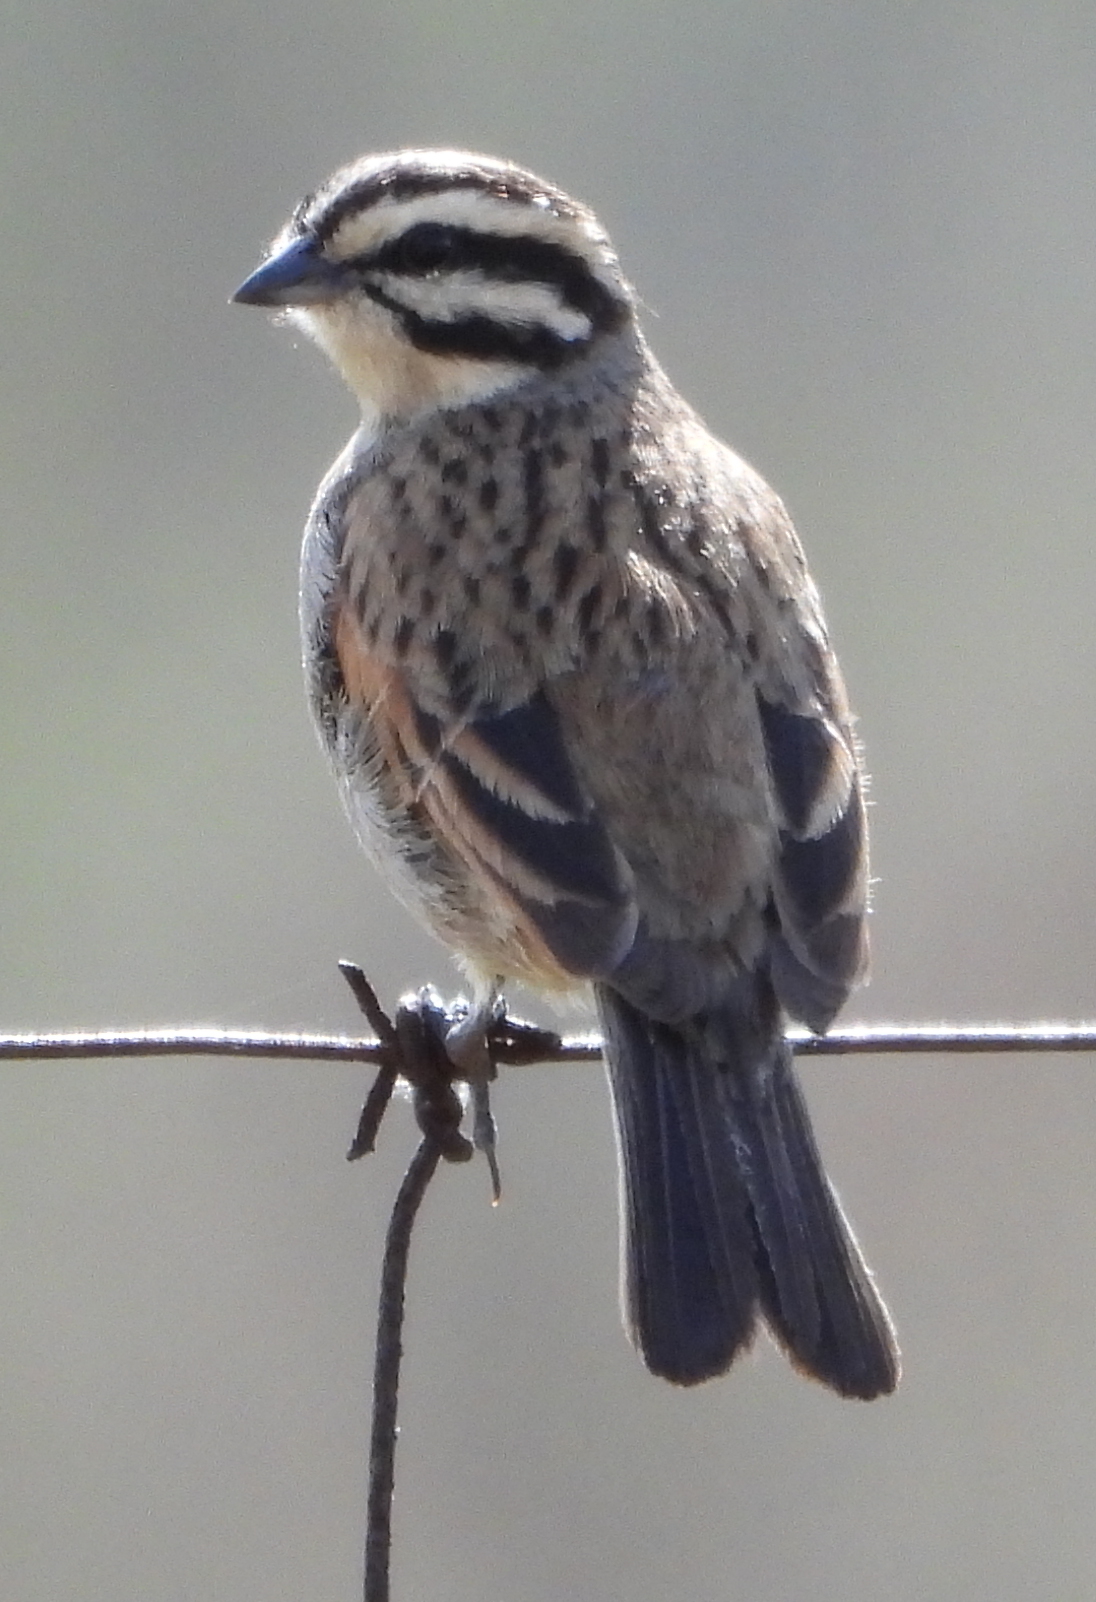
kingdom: Animalia
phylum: Chordata
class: Aves
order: Passeriformes
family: Emberizidae
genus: Emberiza
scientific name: Emberiza capensis
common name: Cape bunting
